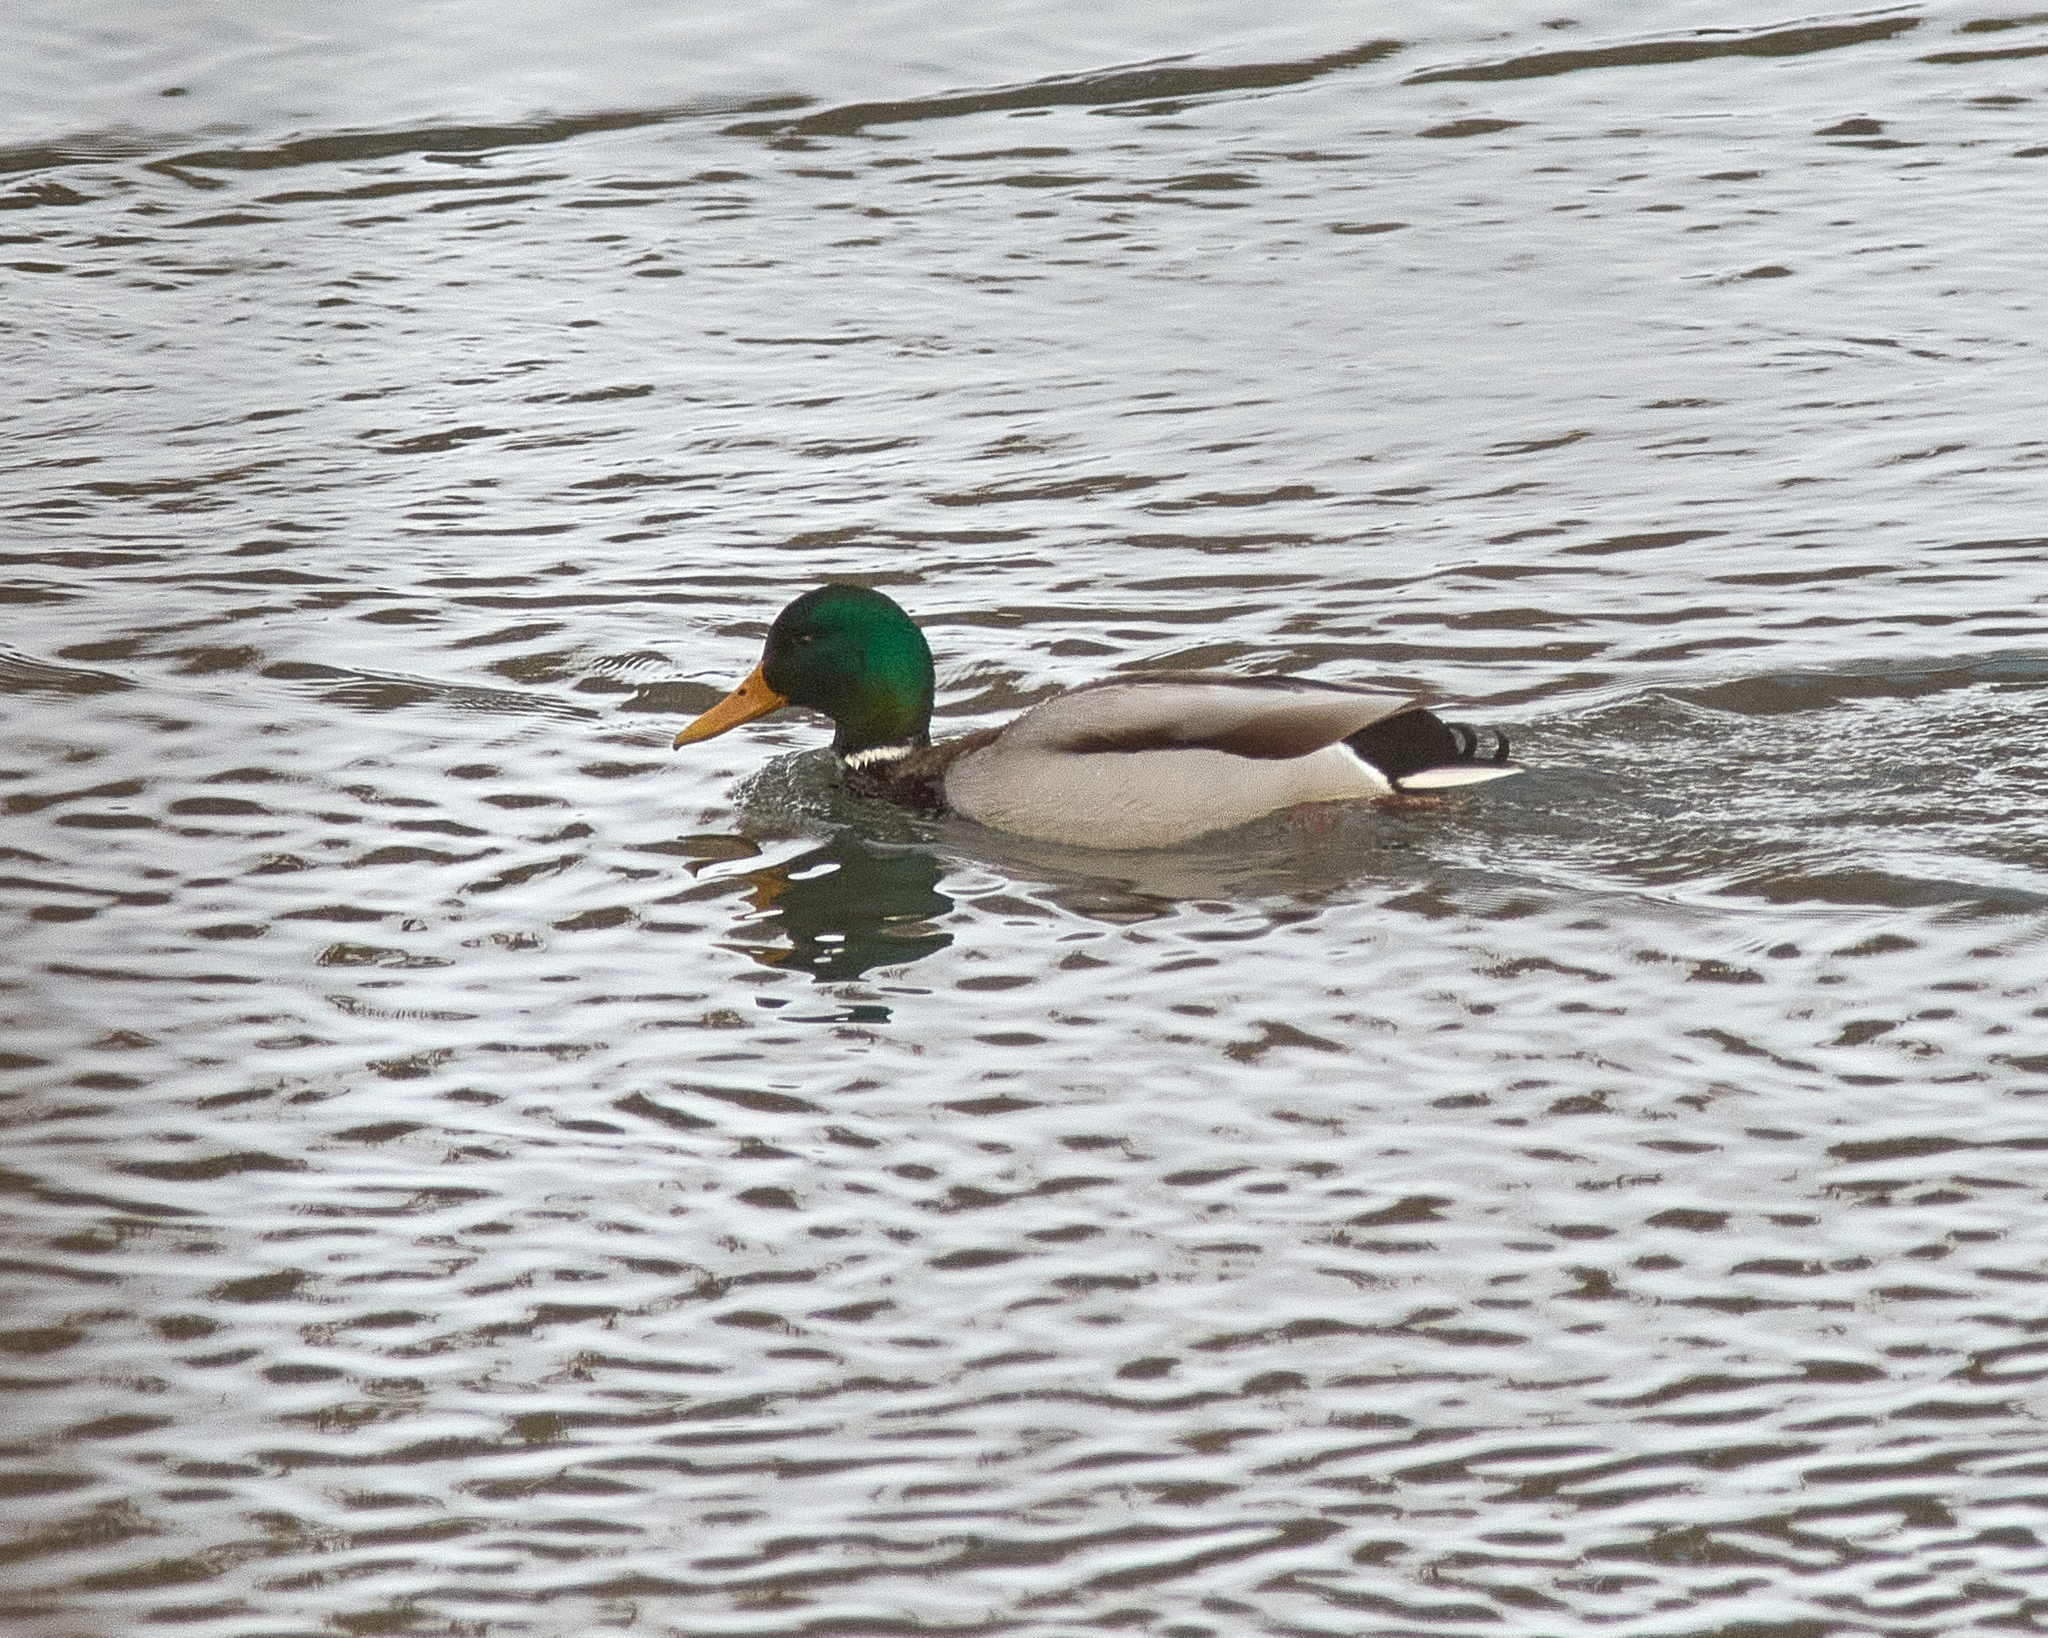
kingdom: Animalia
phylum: Chordata
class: Aves
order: Anseriformes
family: Anatidae
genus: Anas
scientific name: Anas platyrhynchos
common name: Mallard
